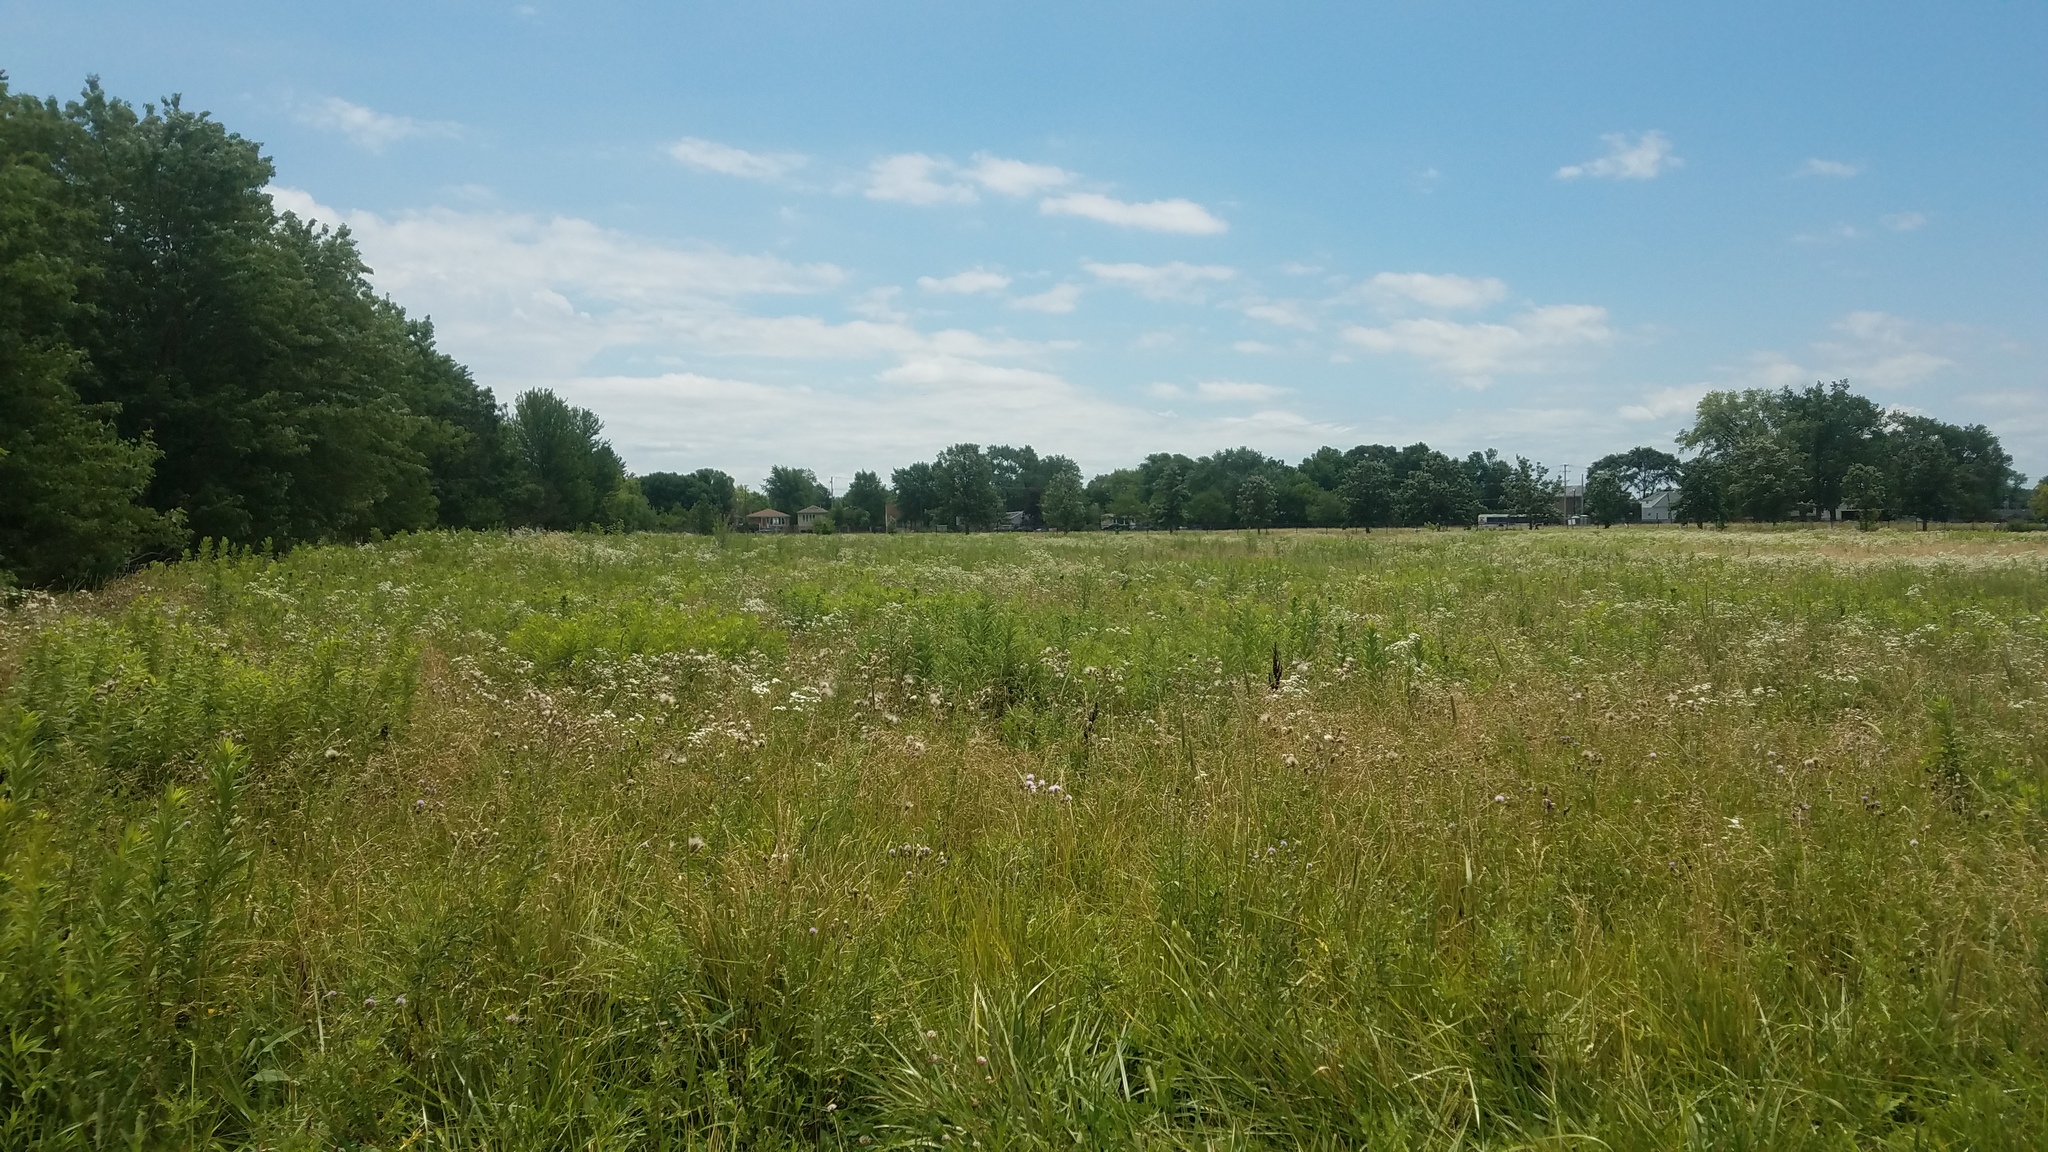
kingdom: Plantae
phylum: Tracheophyta
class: Magnoliopsida
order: Asterales
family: Asteraceae
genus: Cirsium
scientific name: Cirsium arvense
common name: Creeping thistle
